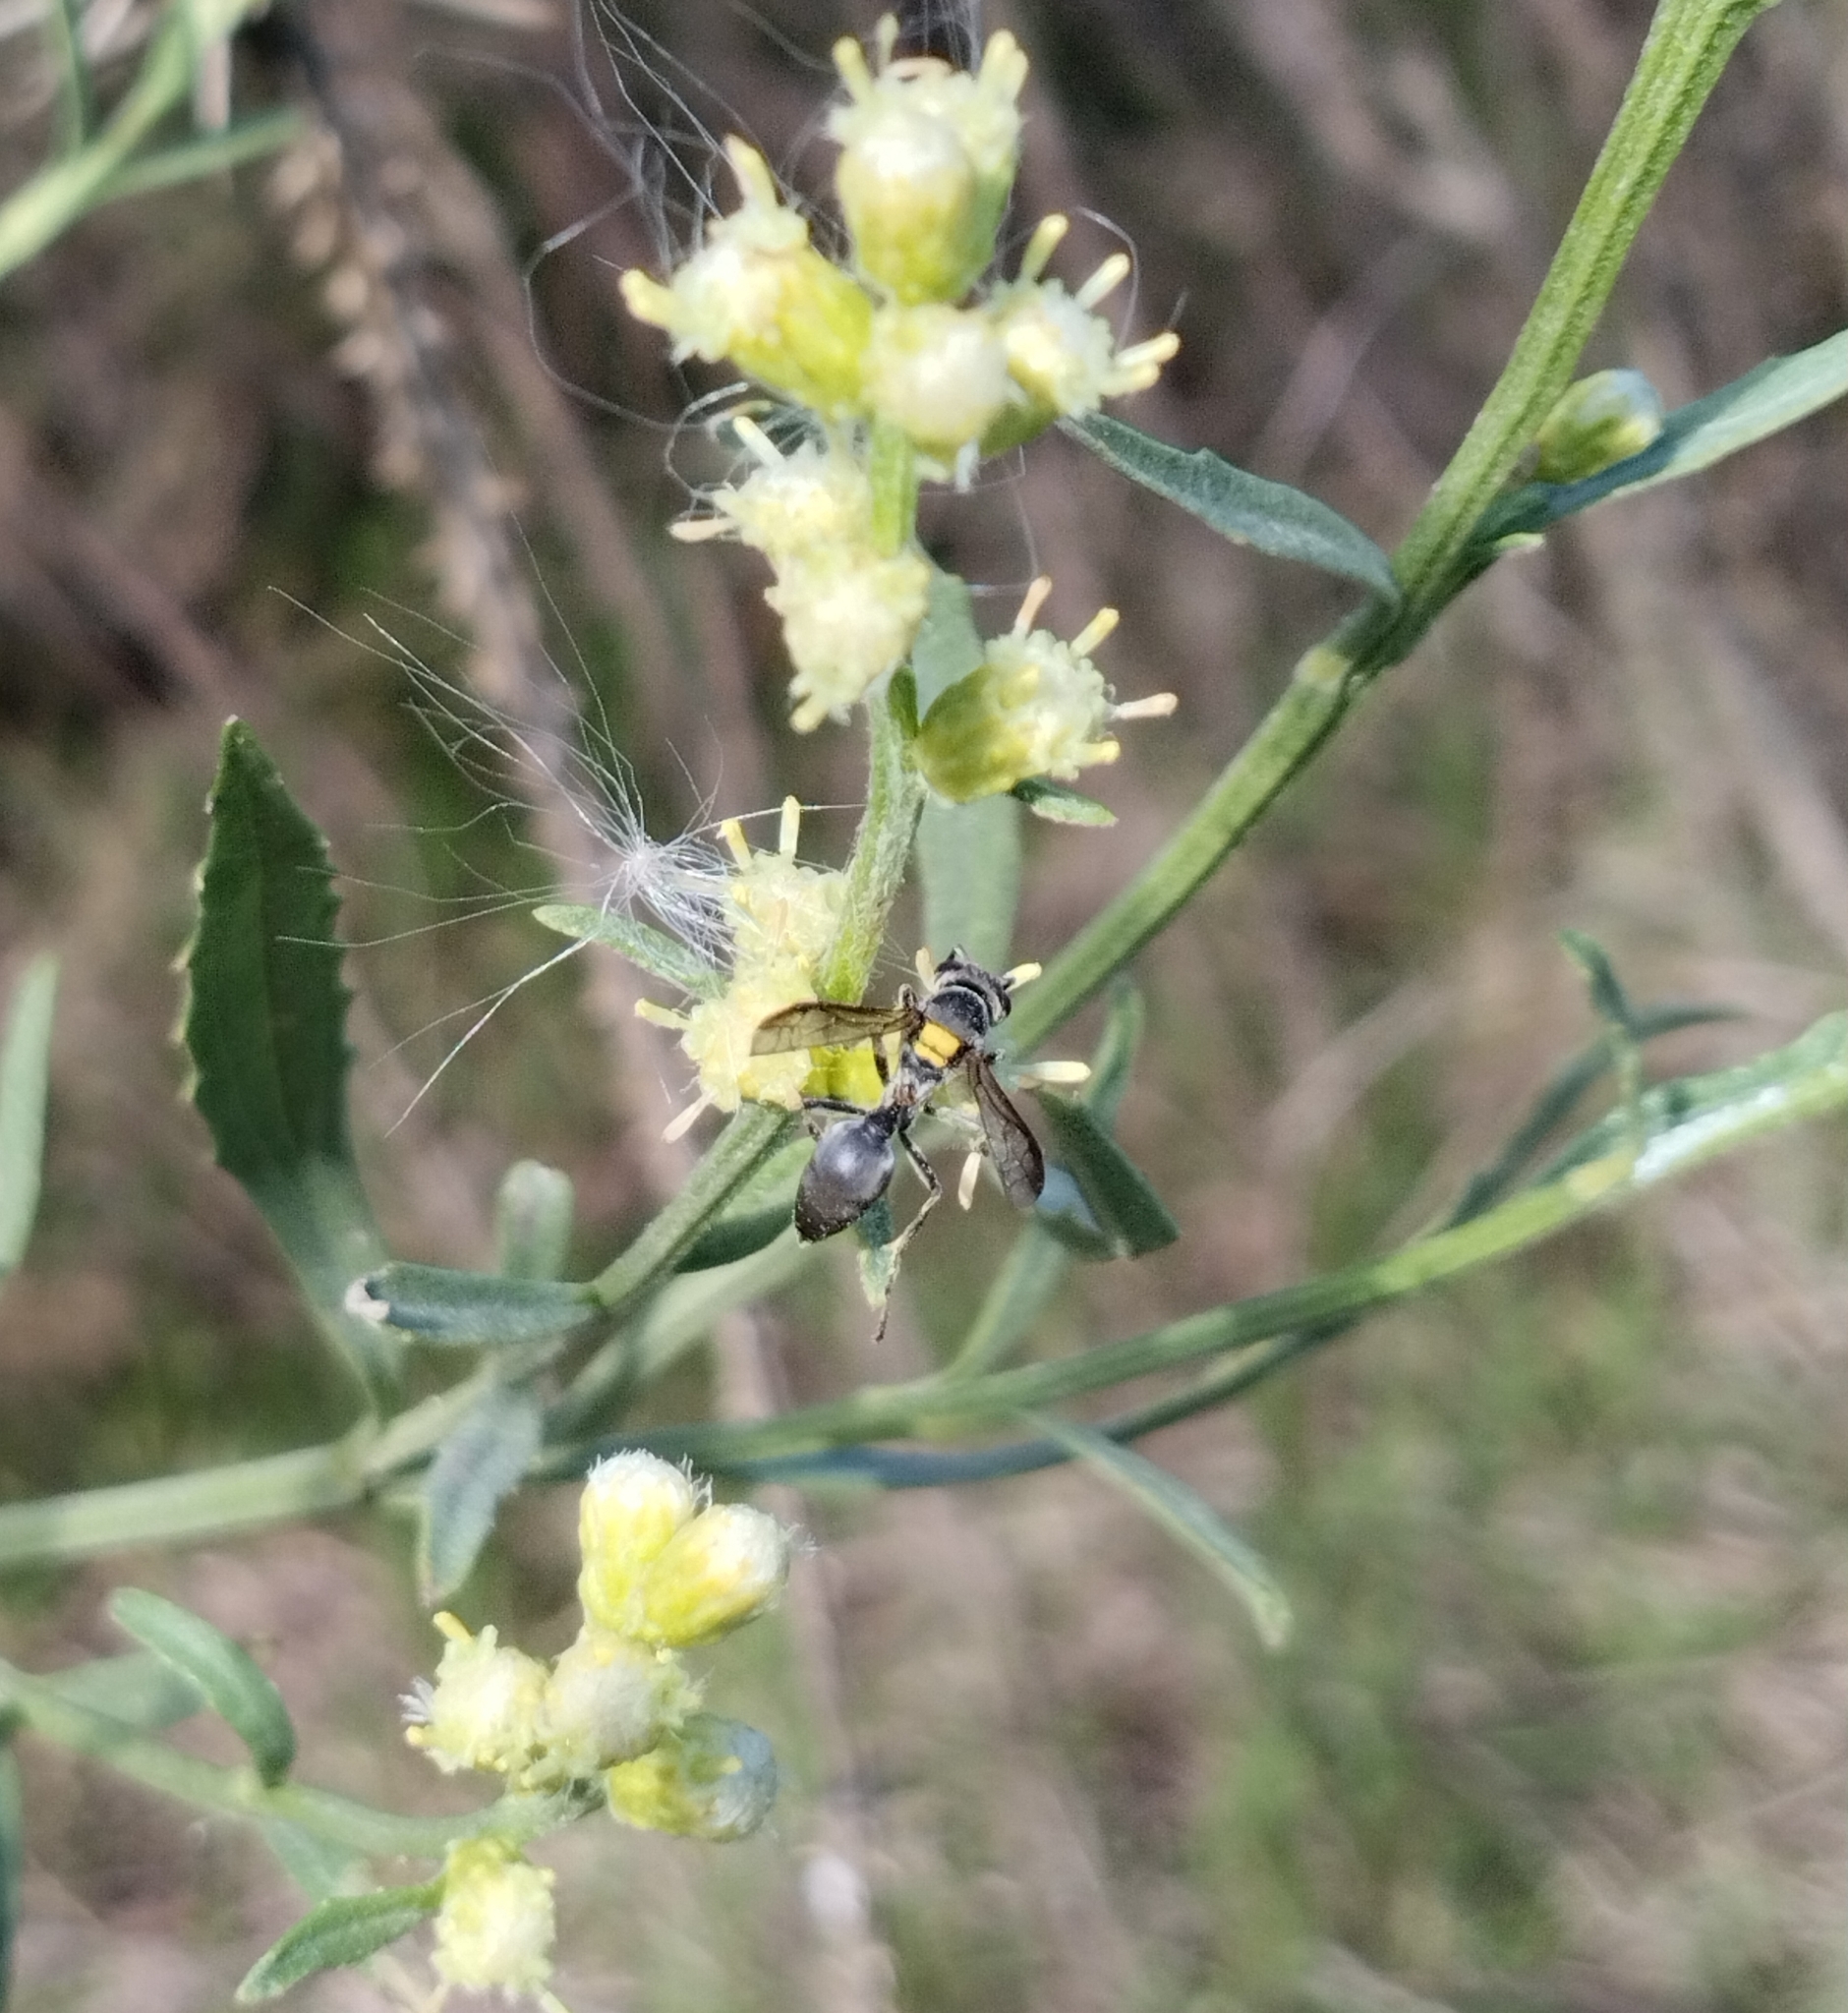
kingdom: Animalia
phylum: Arthropoda
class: Insecta
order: Hymenoptera
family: Eumenidae
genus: Polybia
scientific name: Polybia scutellaris
